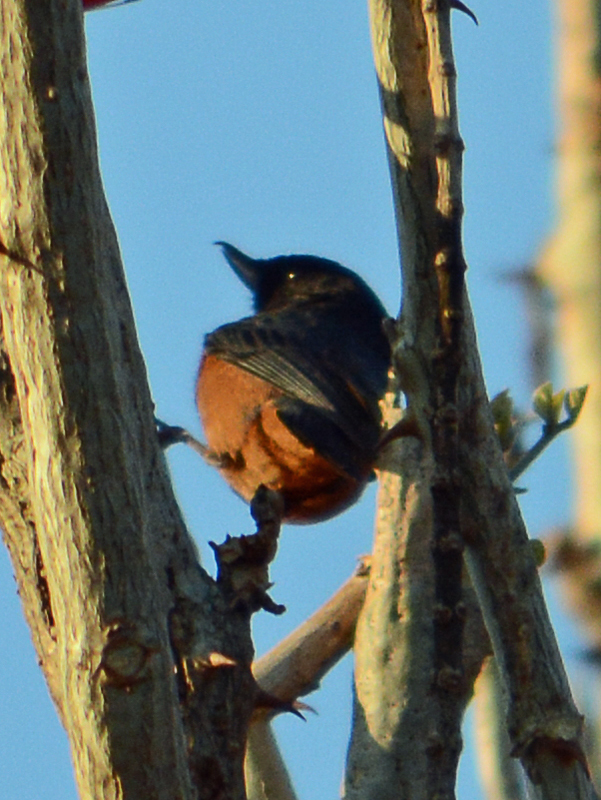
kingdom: Animalia
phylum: Chordata
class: Aves
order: Passeriformes
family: Thraupidae
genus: Diglossa
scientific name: Diglossa baritula
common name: Cinnamon-bellied flowerpiercer
